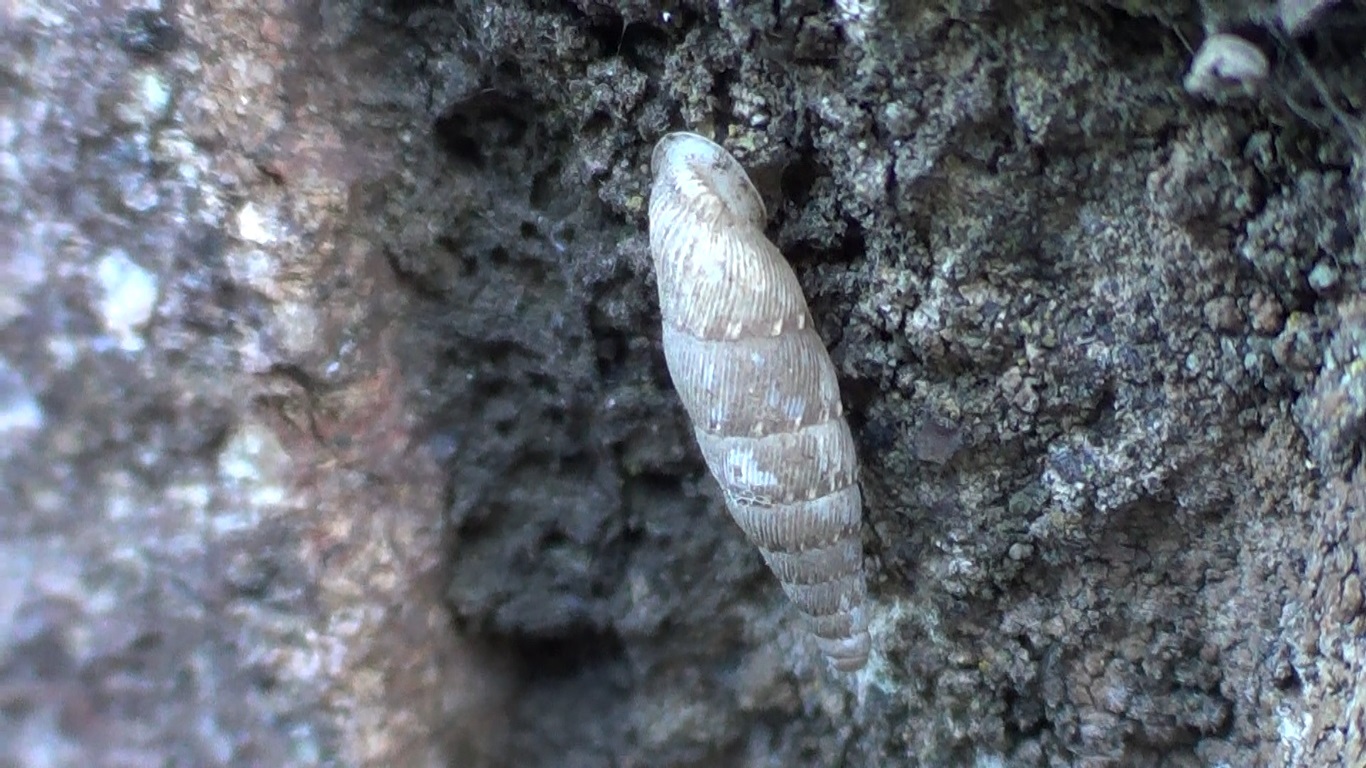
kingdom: Animalia
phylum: Mollusca
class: Gastropoda
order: Stylommatophora
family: Clausiliidae
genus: Papillifera
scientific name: Papillifera papillaris
